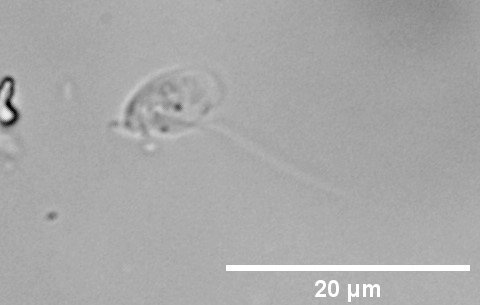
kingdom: Protozoa
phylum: Euglenozoa
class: Kinetoplastea
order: Bodonida
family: Rhynchomonadidae
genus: Rhynchomonas
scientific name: Rhynchomonas nasuta
